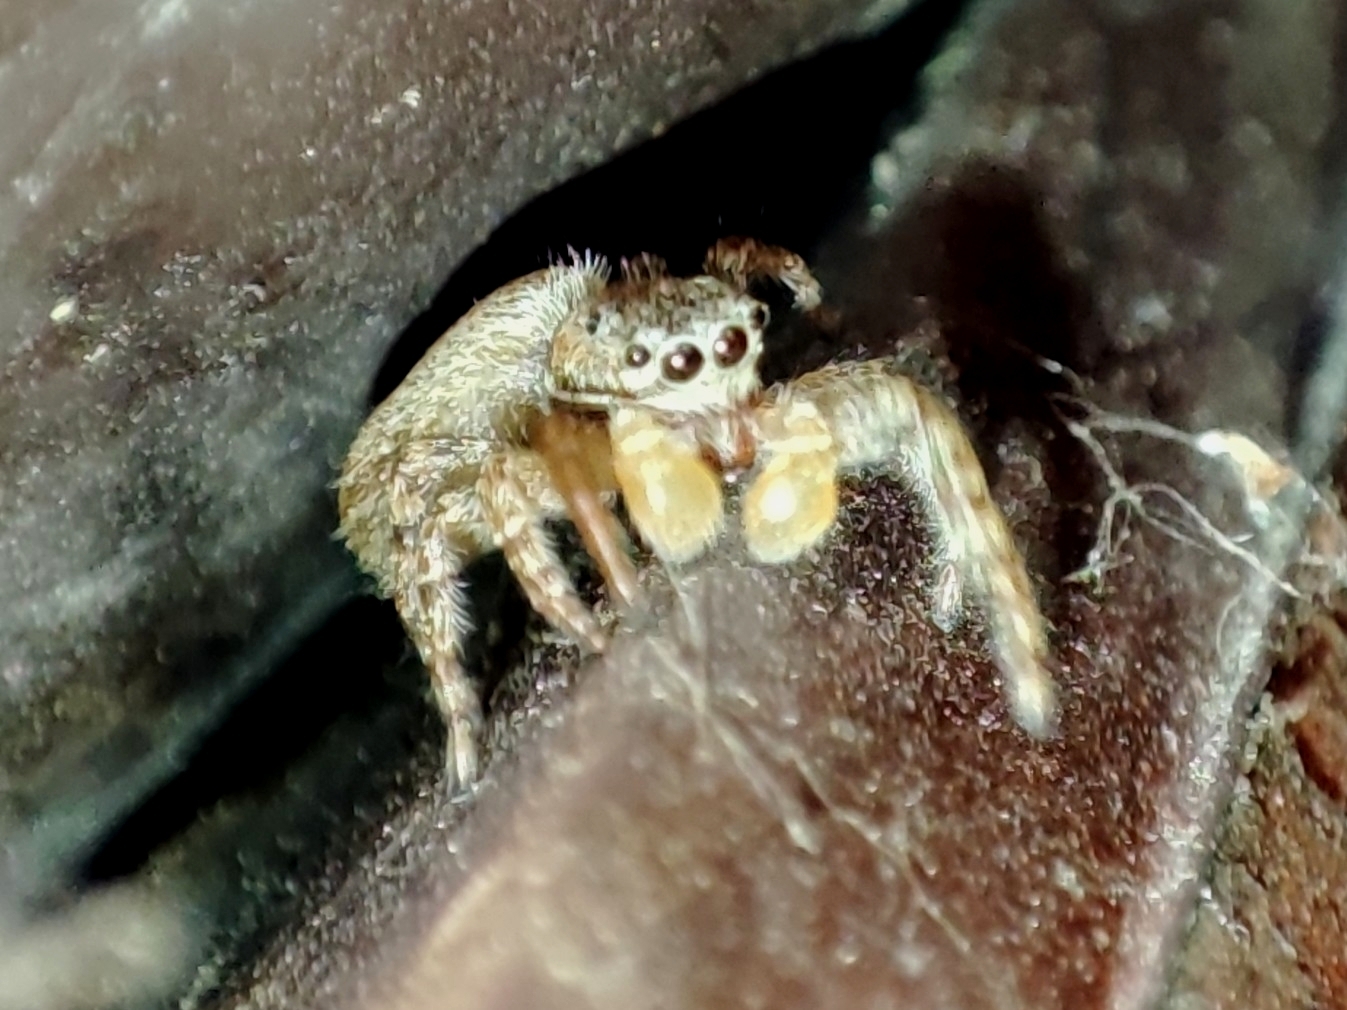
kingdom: Animalia
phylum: Arthropoda
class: Arachnida
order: Araneae
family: Salticidae
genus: Marpissa
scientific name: Marpissa muscosa
